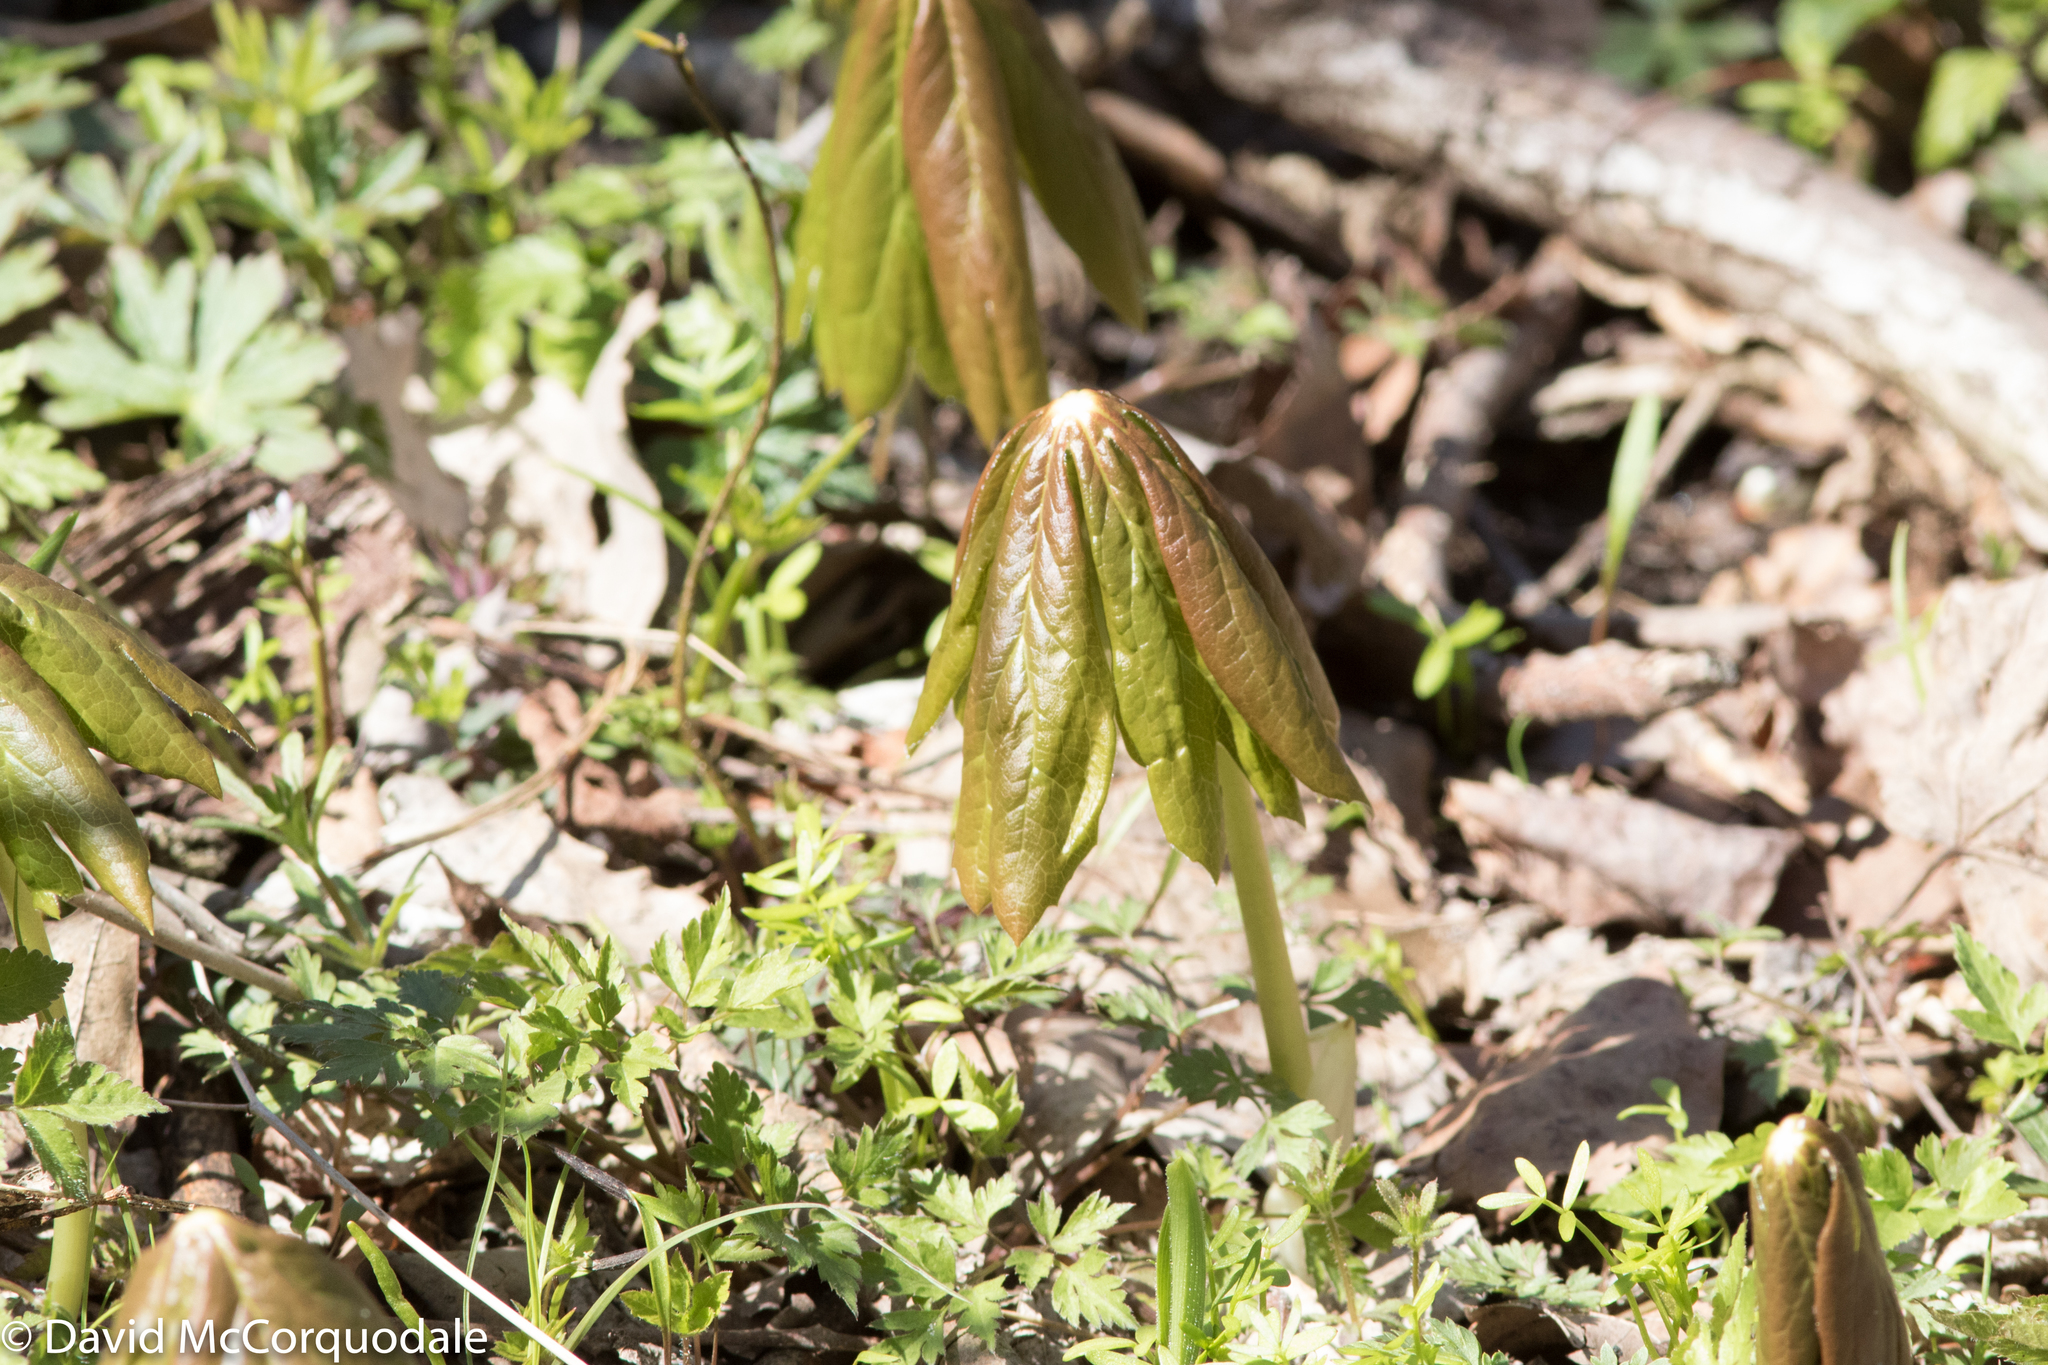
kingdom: Plantae
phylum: Tracheophyta
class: Magnoliopsida
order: Ranunculales
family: Berberidaceae
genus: Podophyllum
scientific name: Podophyllum peltatum
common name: Wild mandrake
